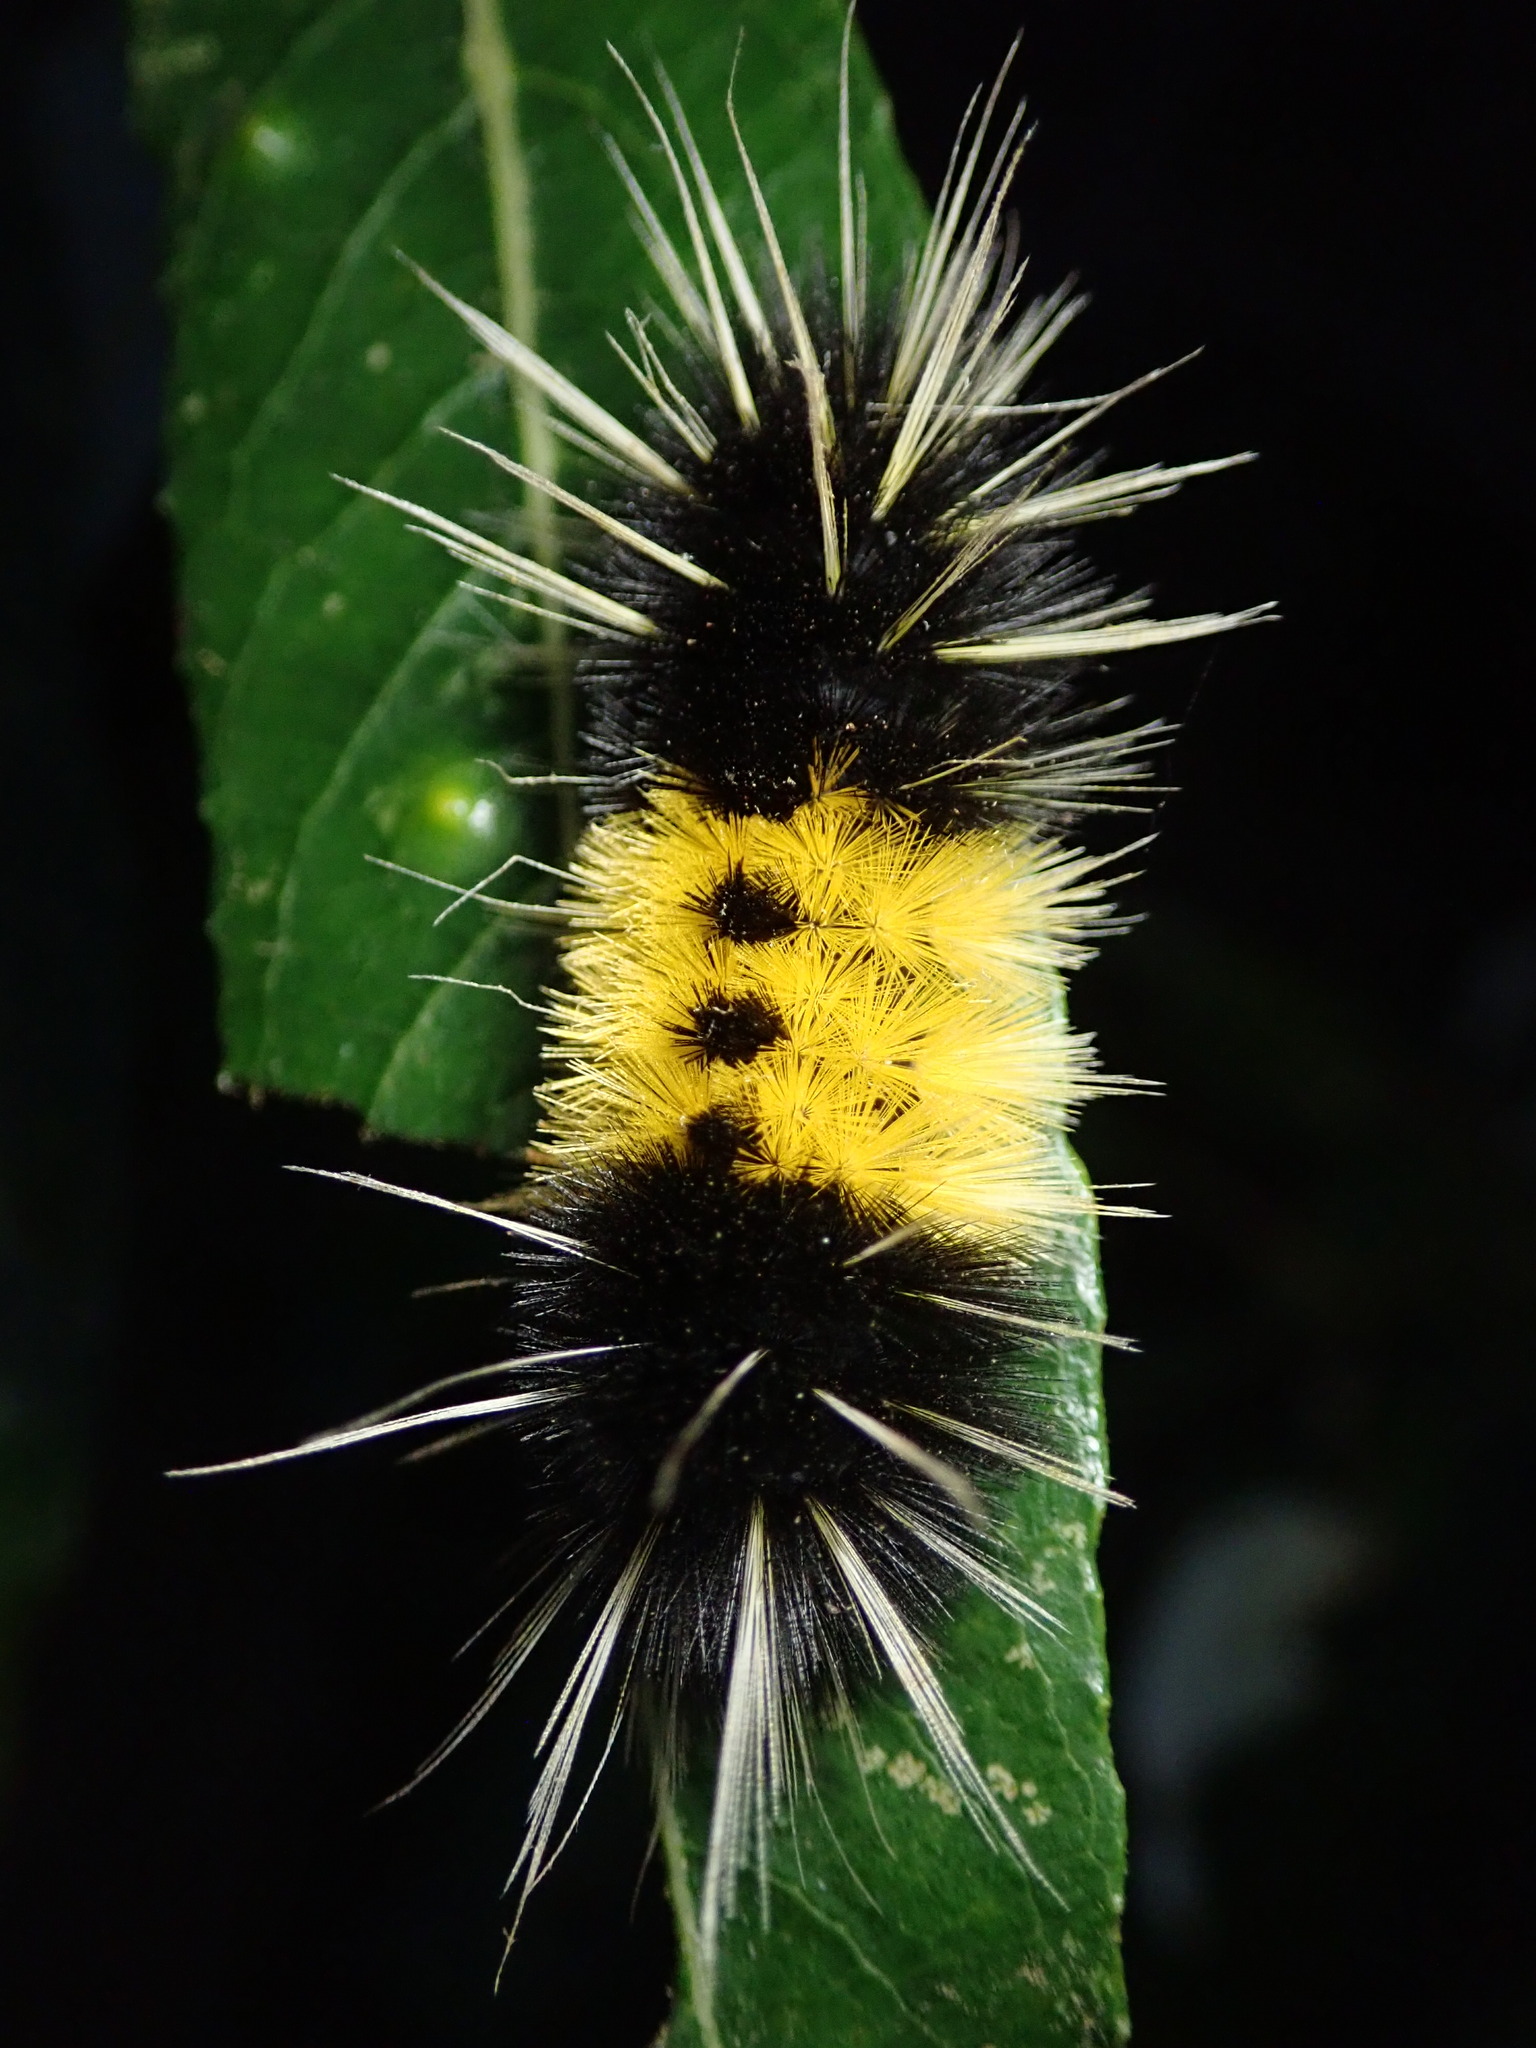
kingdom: Animalia
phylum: Arthropoda
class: Insecta
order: Lepidoptera
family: Erebidae
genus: Lophocampa
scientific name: Lophocampa maculata
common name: Spotted tussock moth
